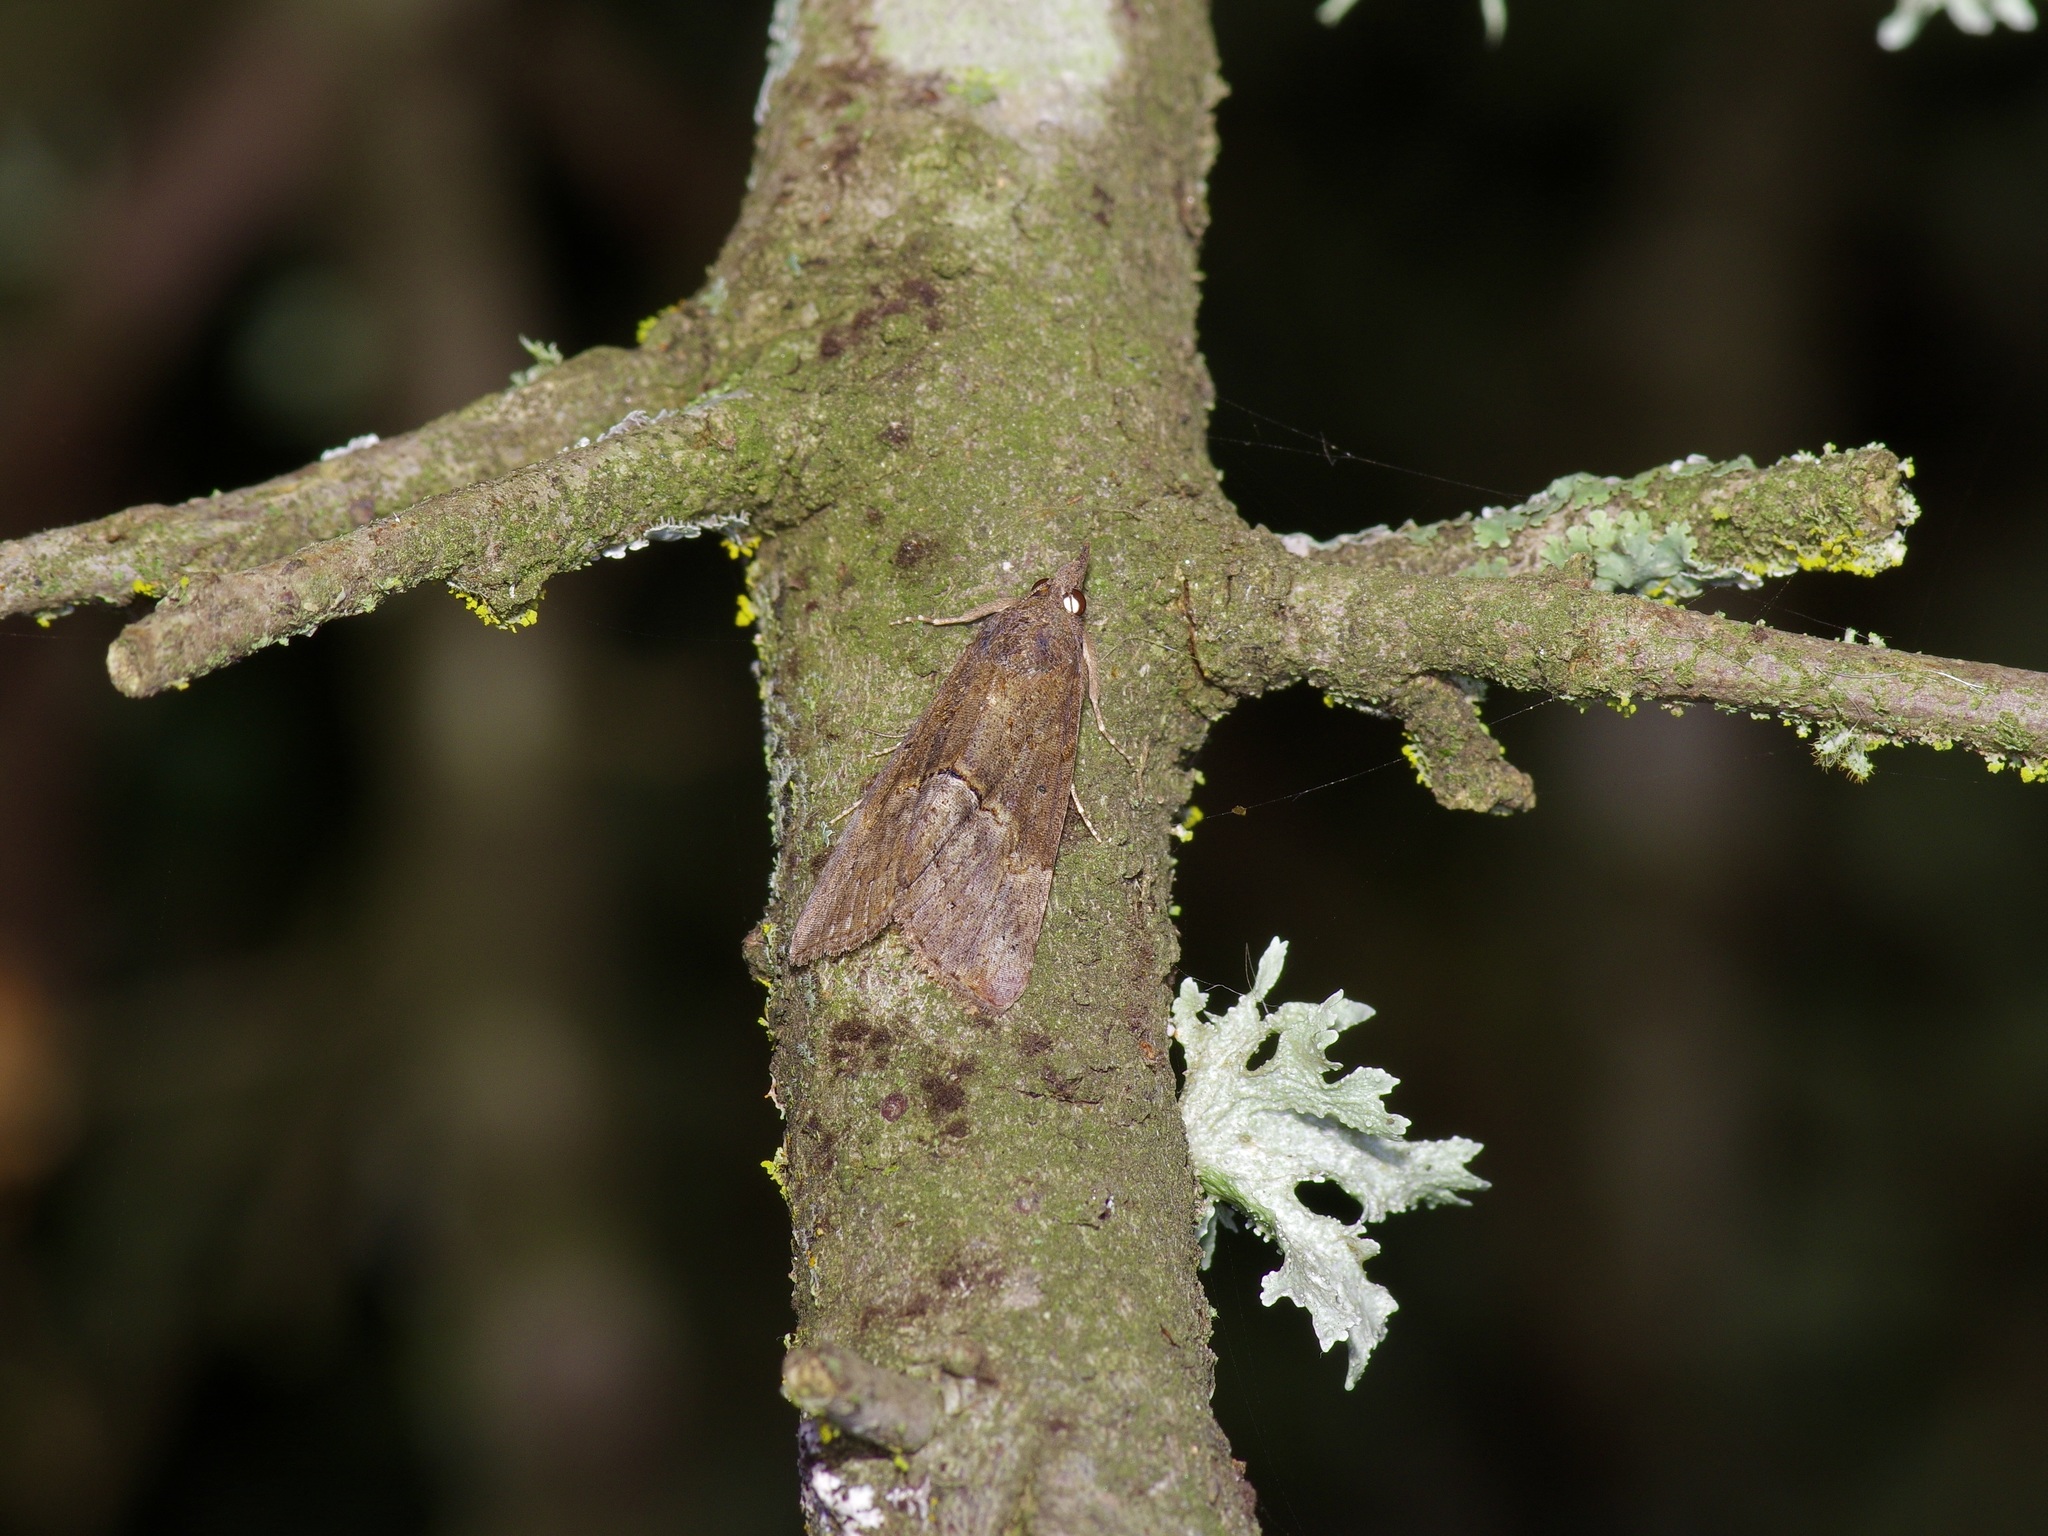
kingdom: Animalia
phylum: Arthropoda
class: Insecta
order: Lepidoptera
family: Erebidae
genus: Hypena
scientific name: Hypena scabra
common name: Green cloverworm
